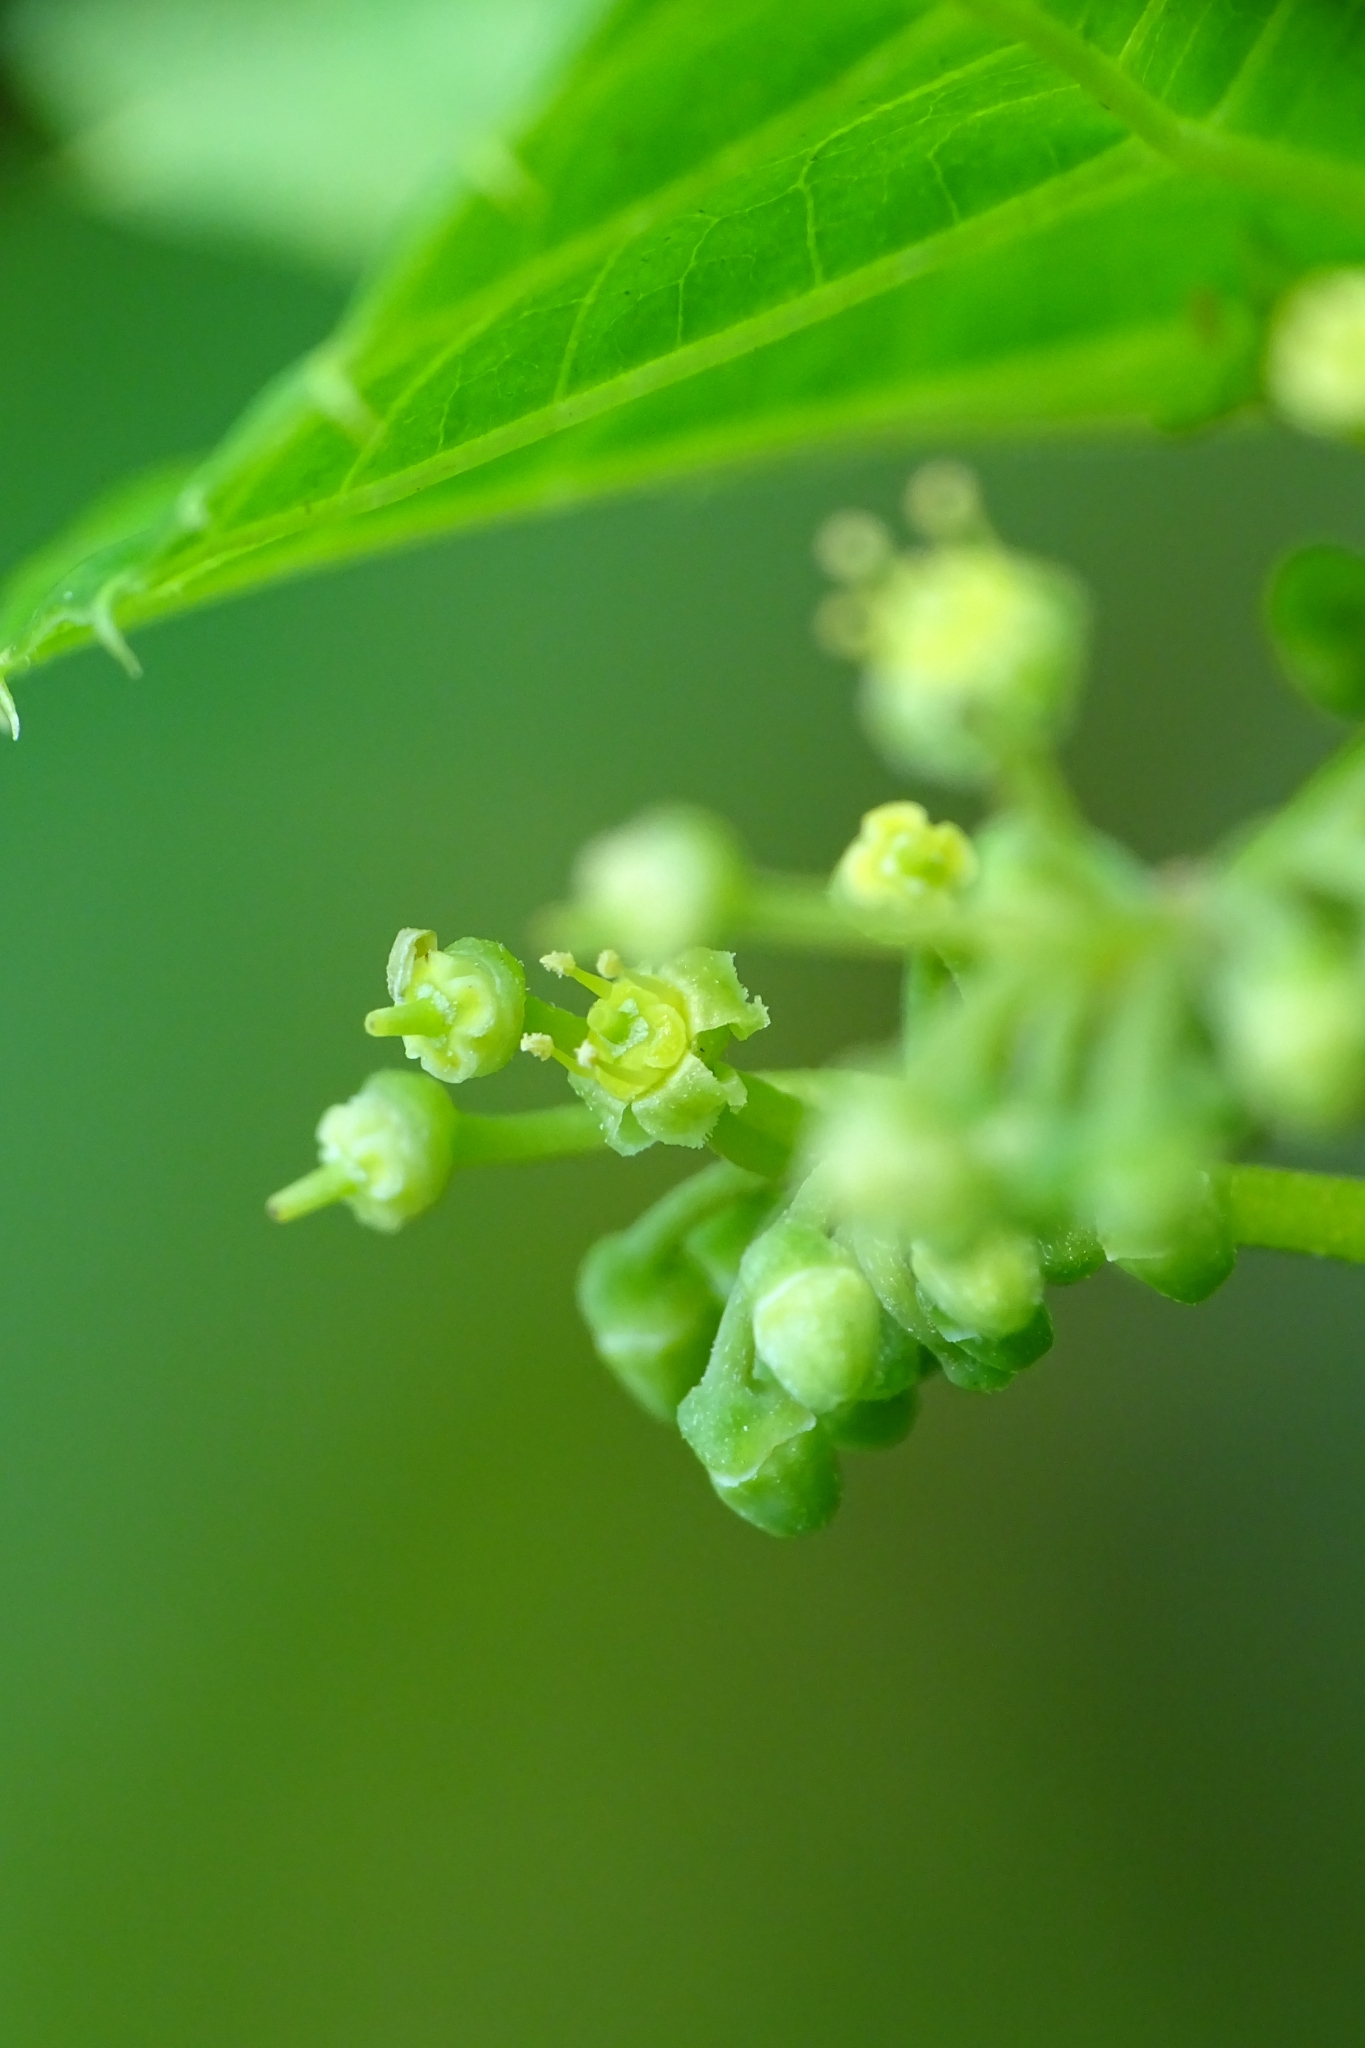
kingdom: Plantae
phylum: Tracheophyta
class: Magnoliopsida
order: Vitales
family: Vitaceae
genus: Cissus
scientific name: Cissus verticillata
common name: Princess vine
